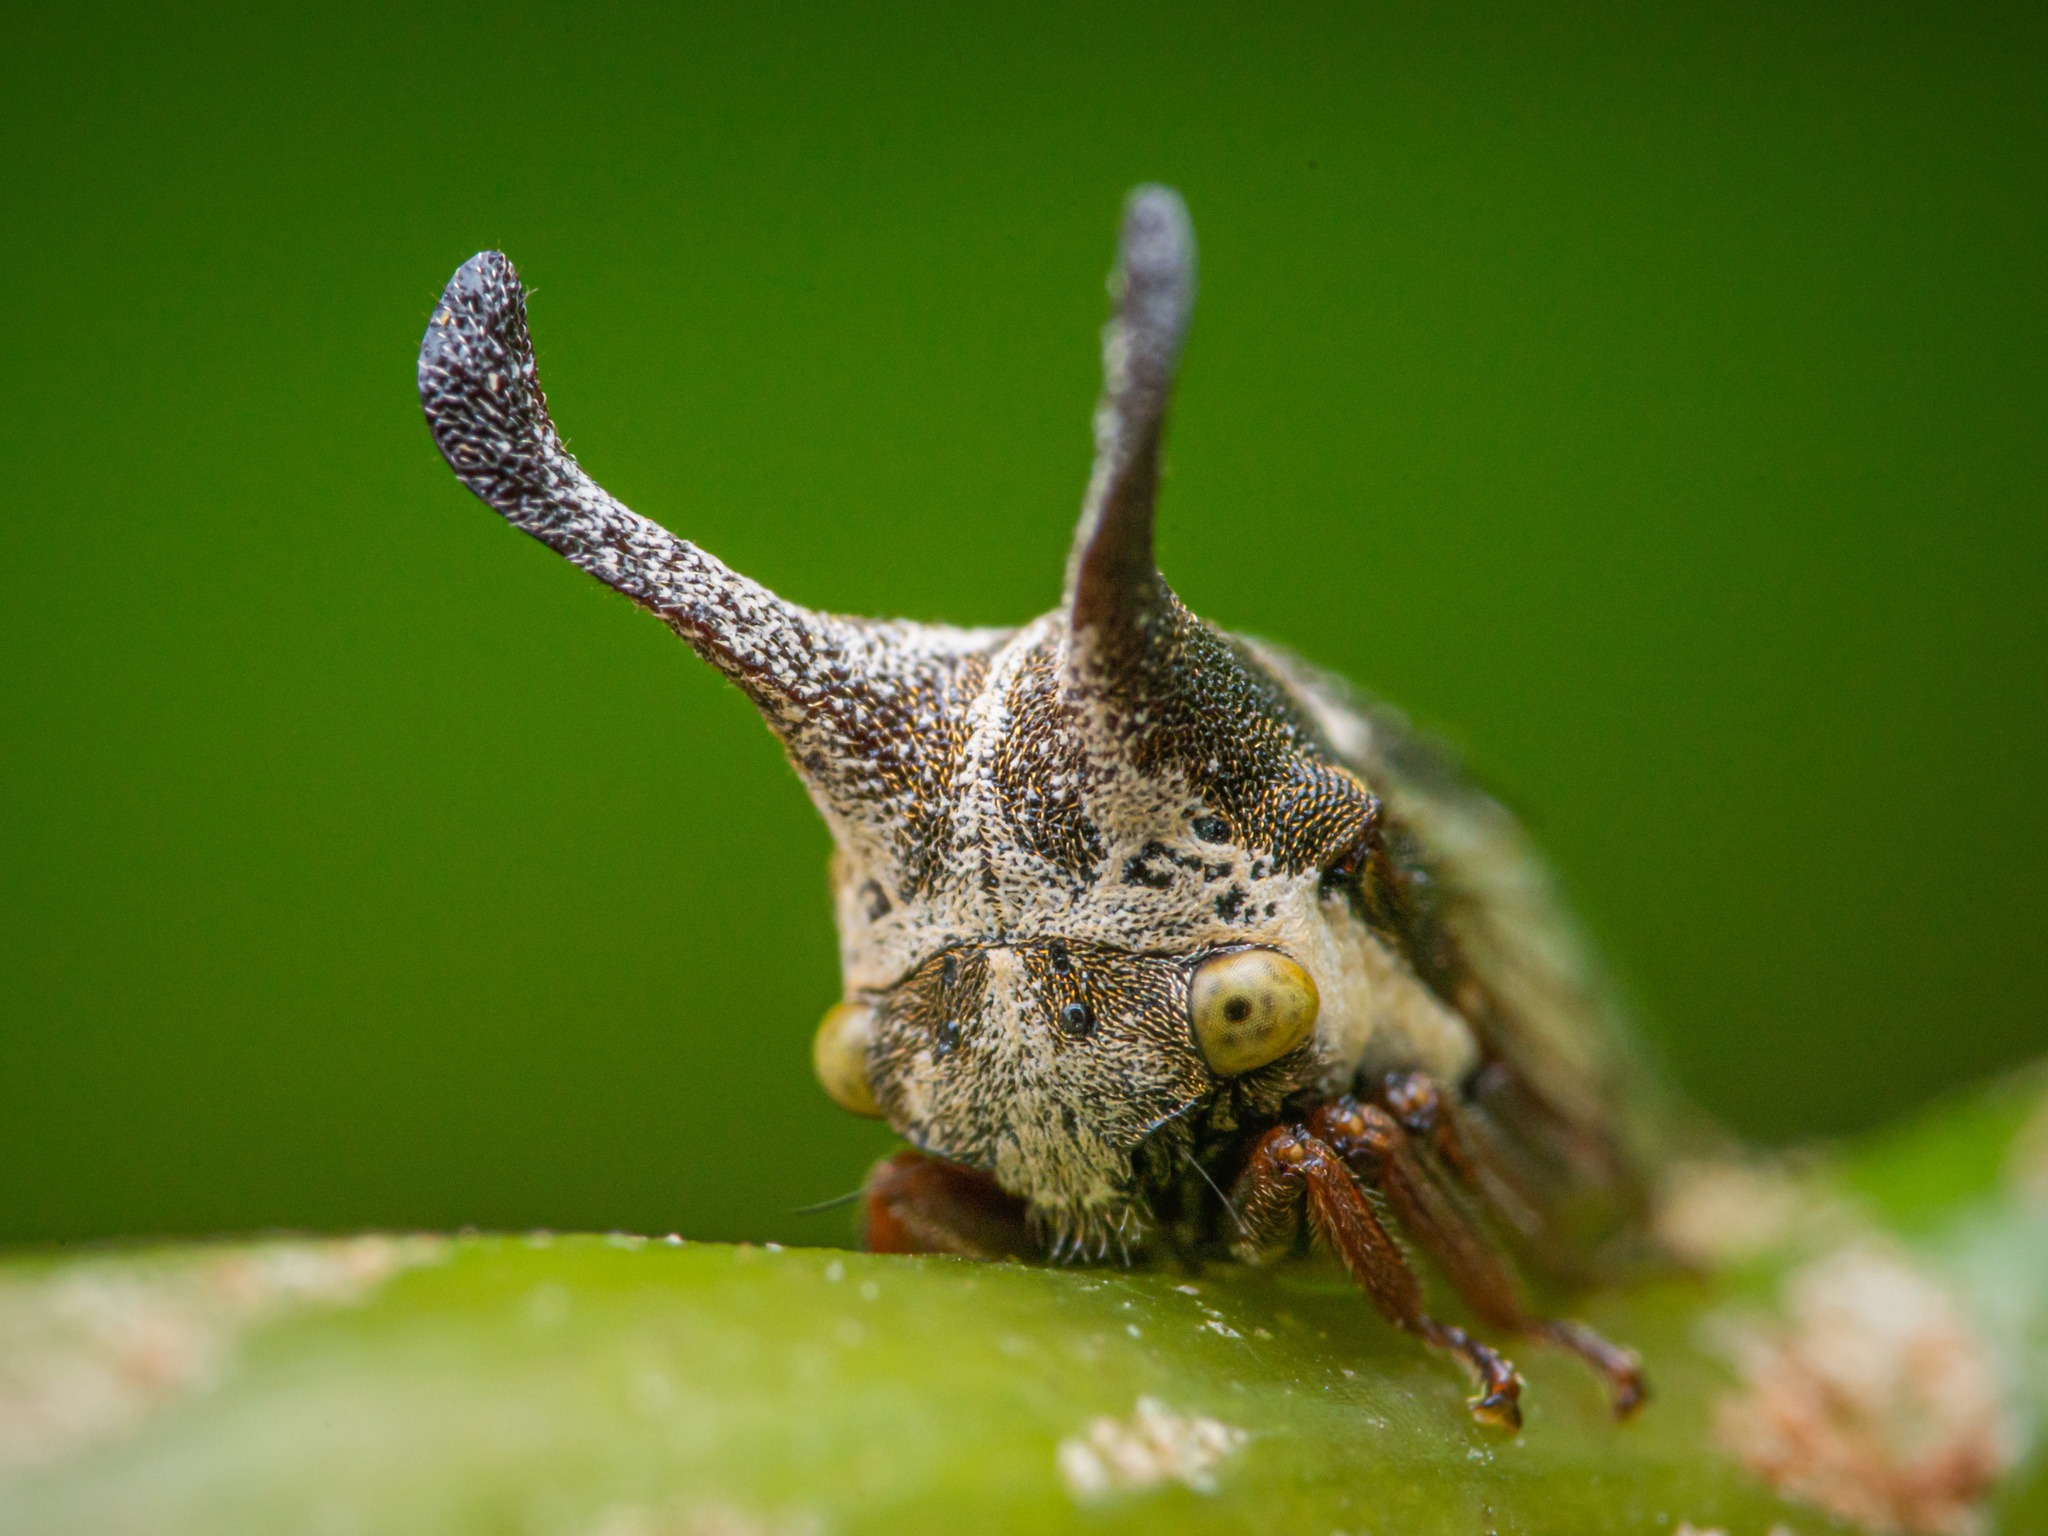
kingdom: Animalia
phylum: Arthropoda
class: Insecta
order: Hemiptera
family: Membracidae
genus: Tricentrus
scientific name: Tricentrus convergens
